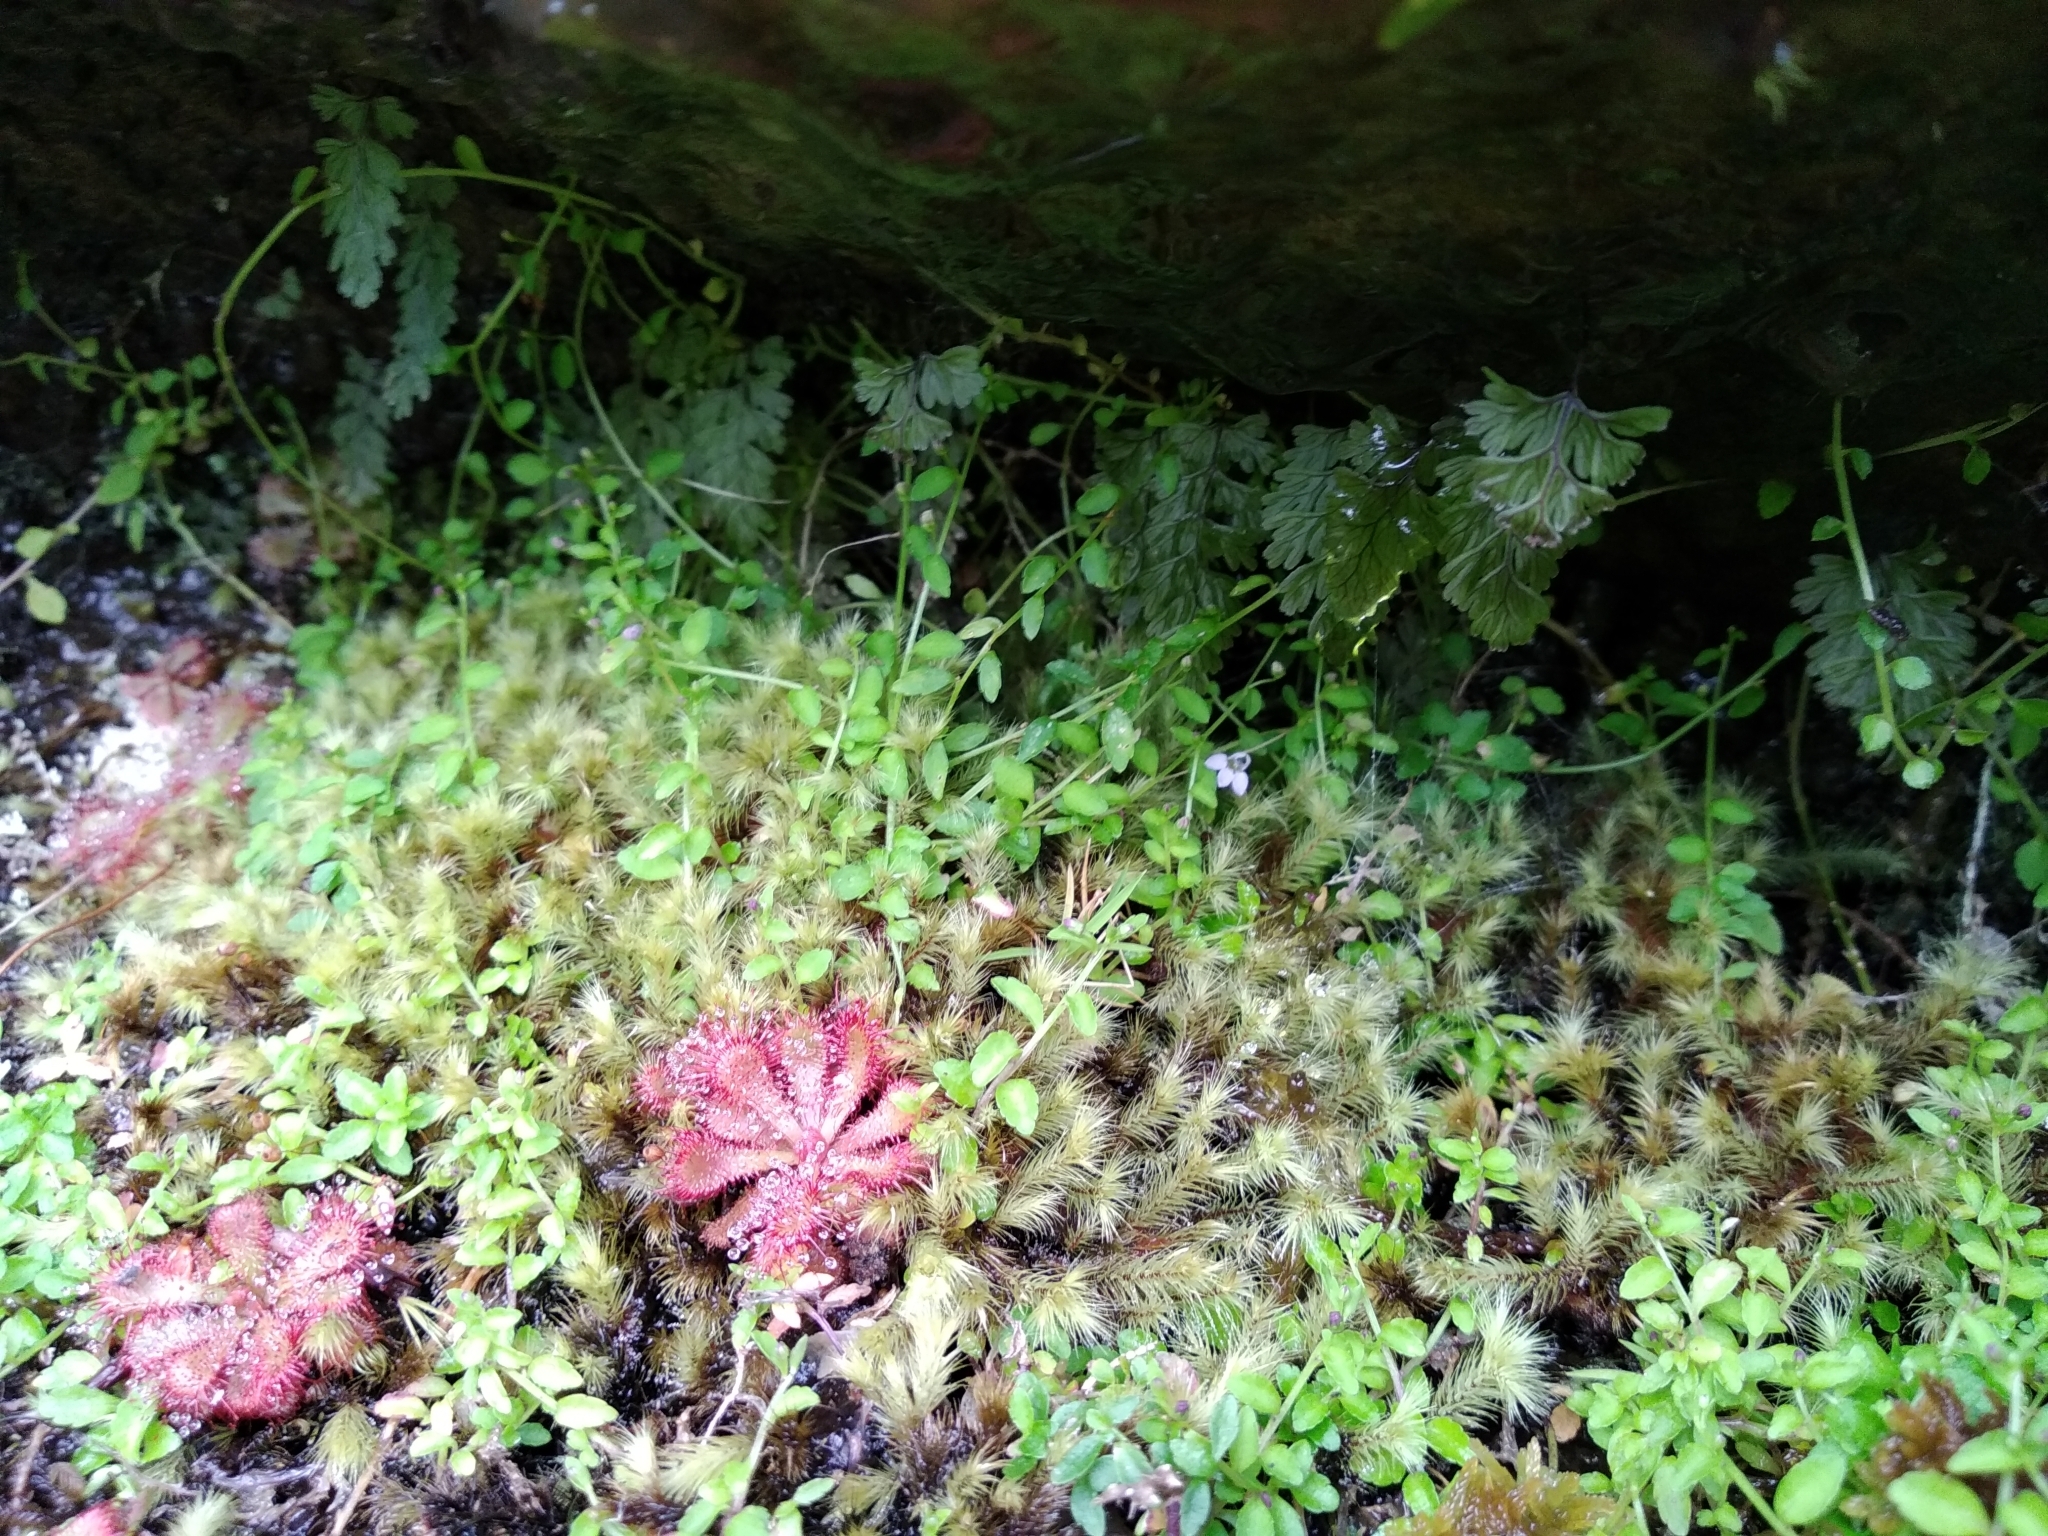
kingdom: Plantae
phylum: Tracheophyta
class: Magnoliopsida
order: Asterales
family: Campanulaceae
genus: Unigenes
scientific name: Unigenes humifusa
